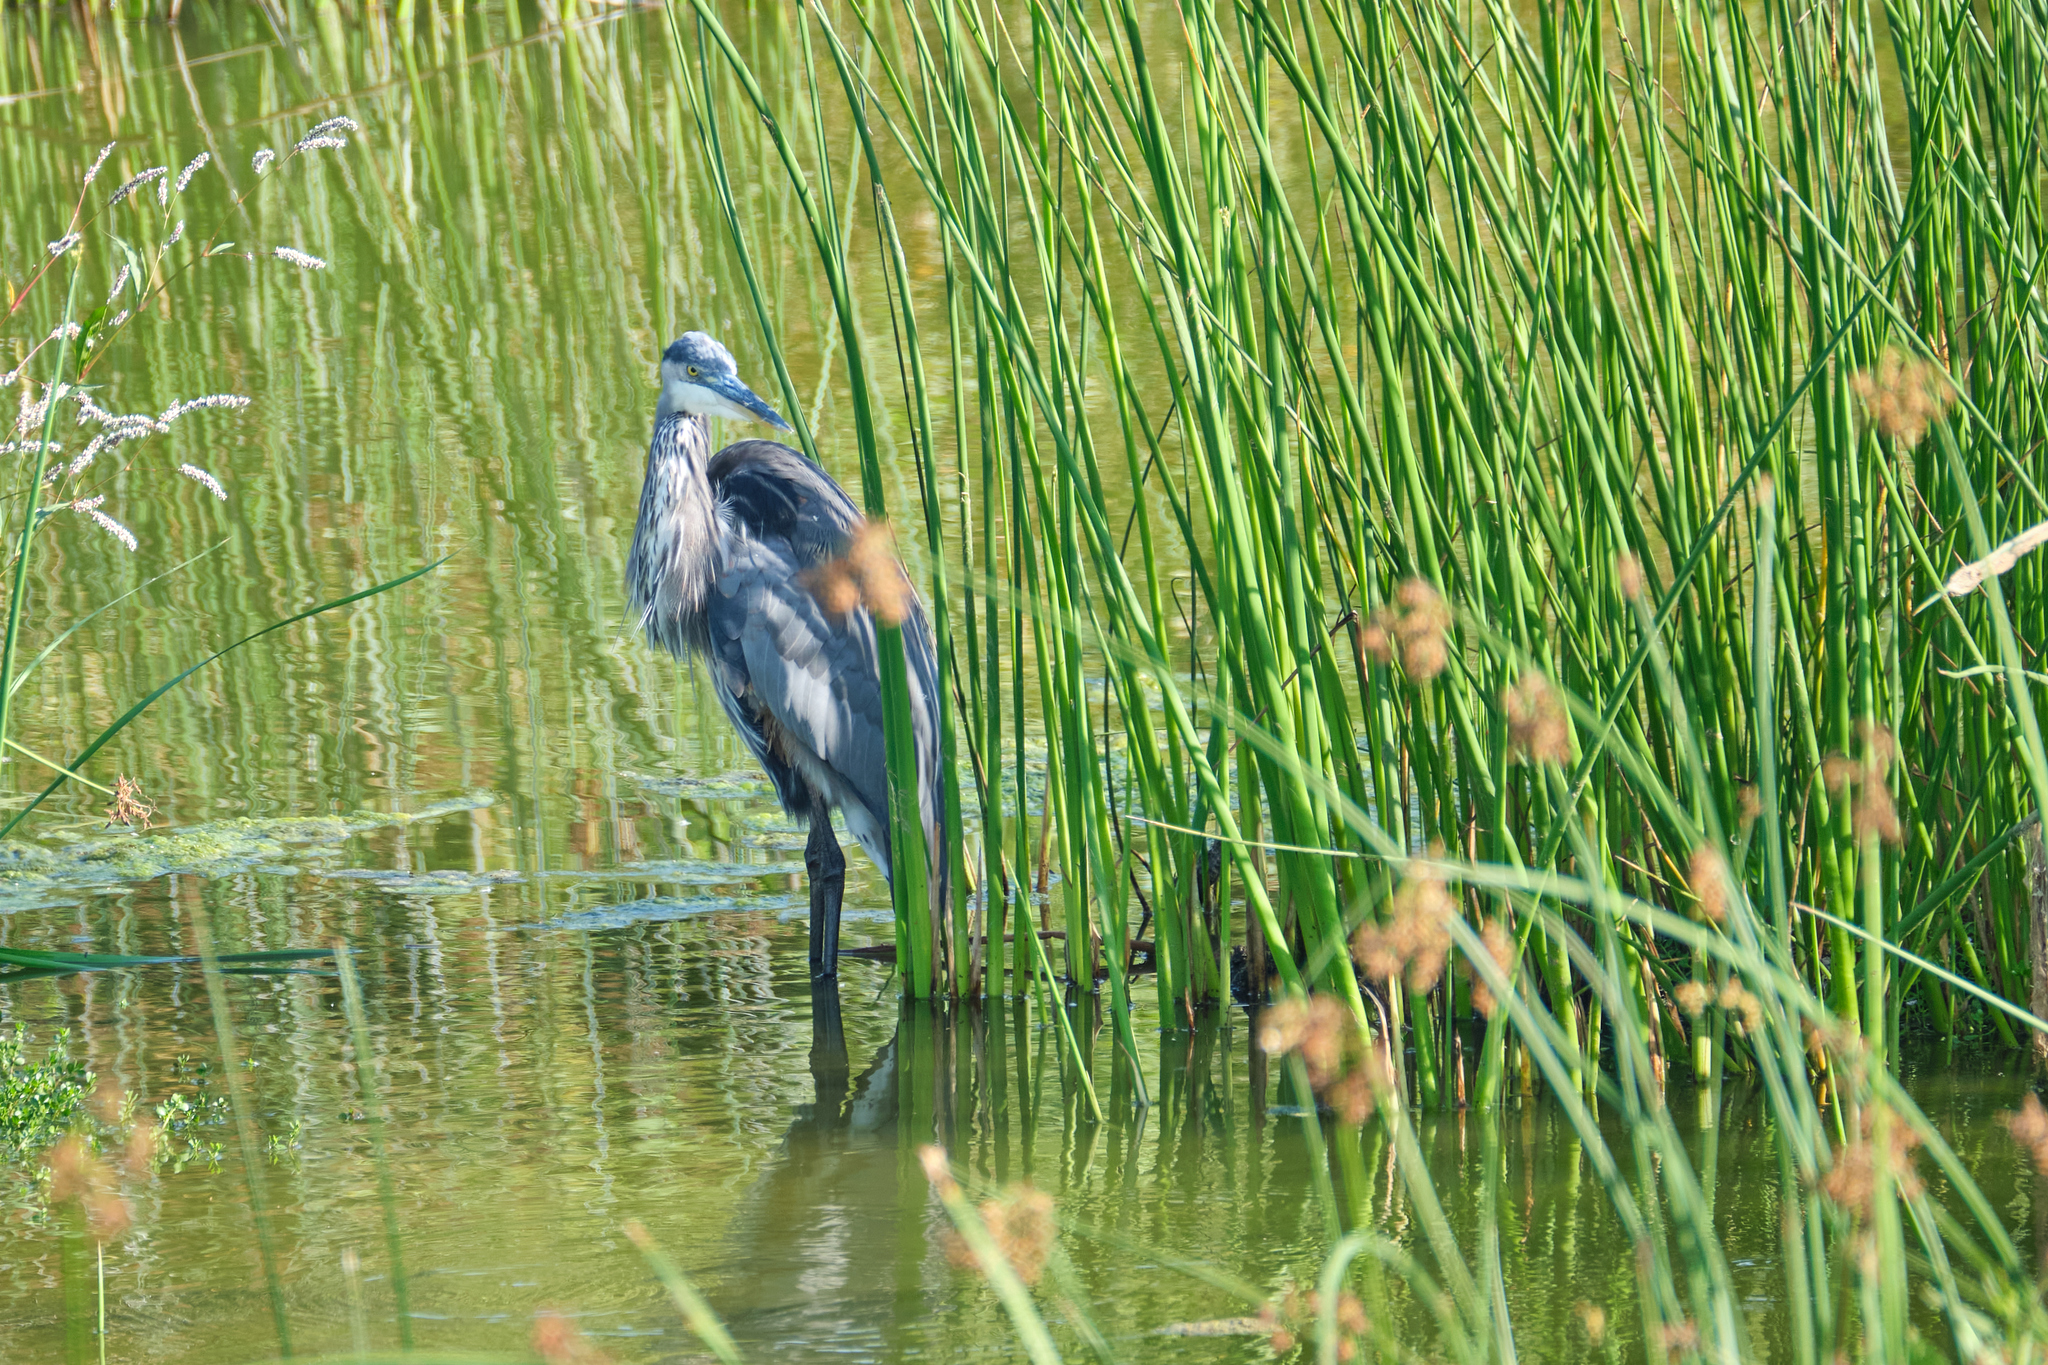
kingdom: Animalia
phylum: Chordata
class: Aves
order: Pelecaniformes
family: Ardeidae
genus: Ardea
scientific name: Ardea herodias
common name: Great blue heron
